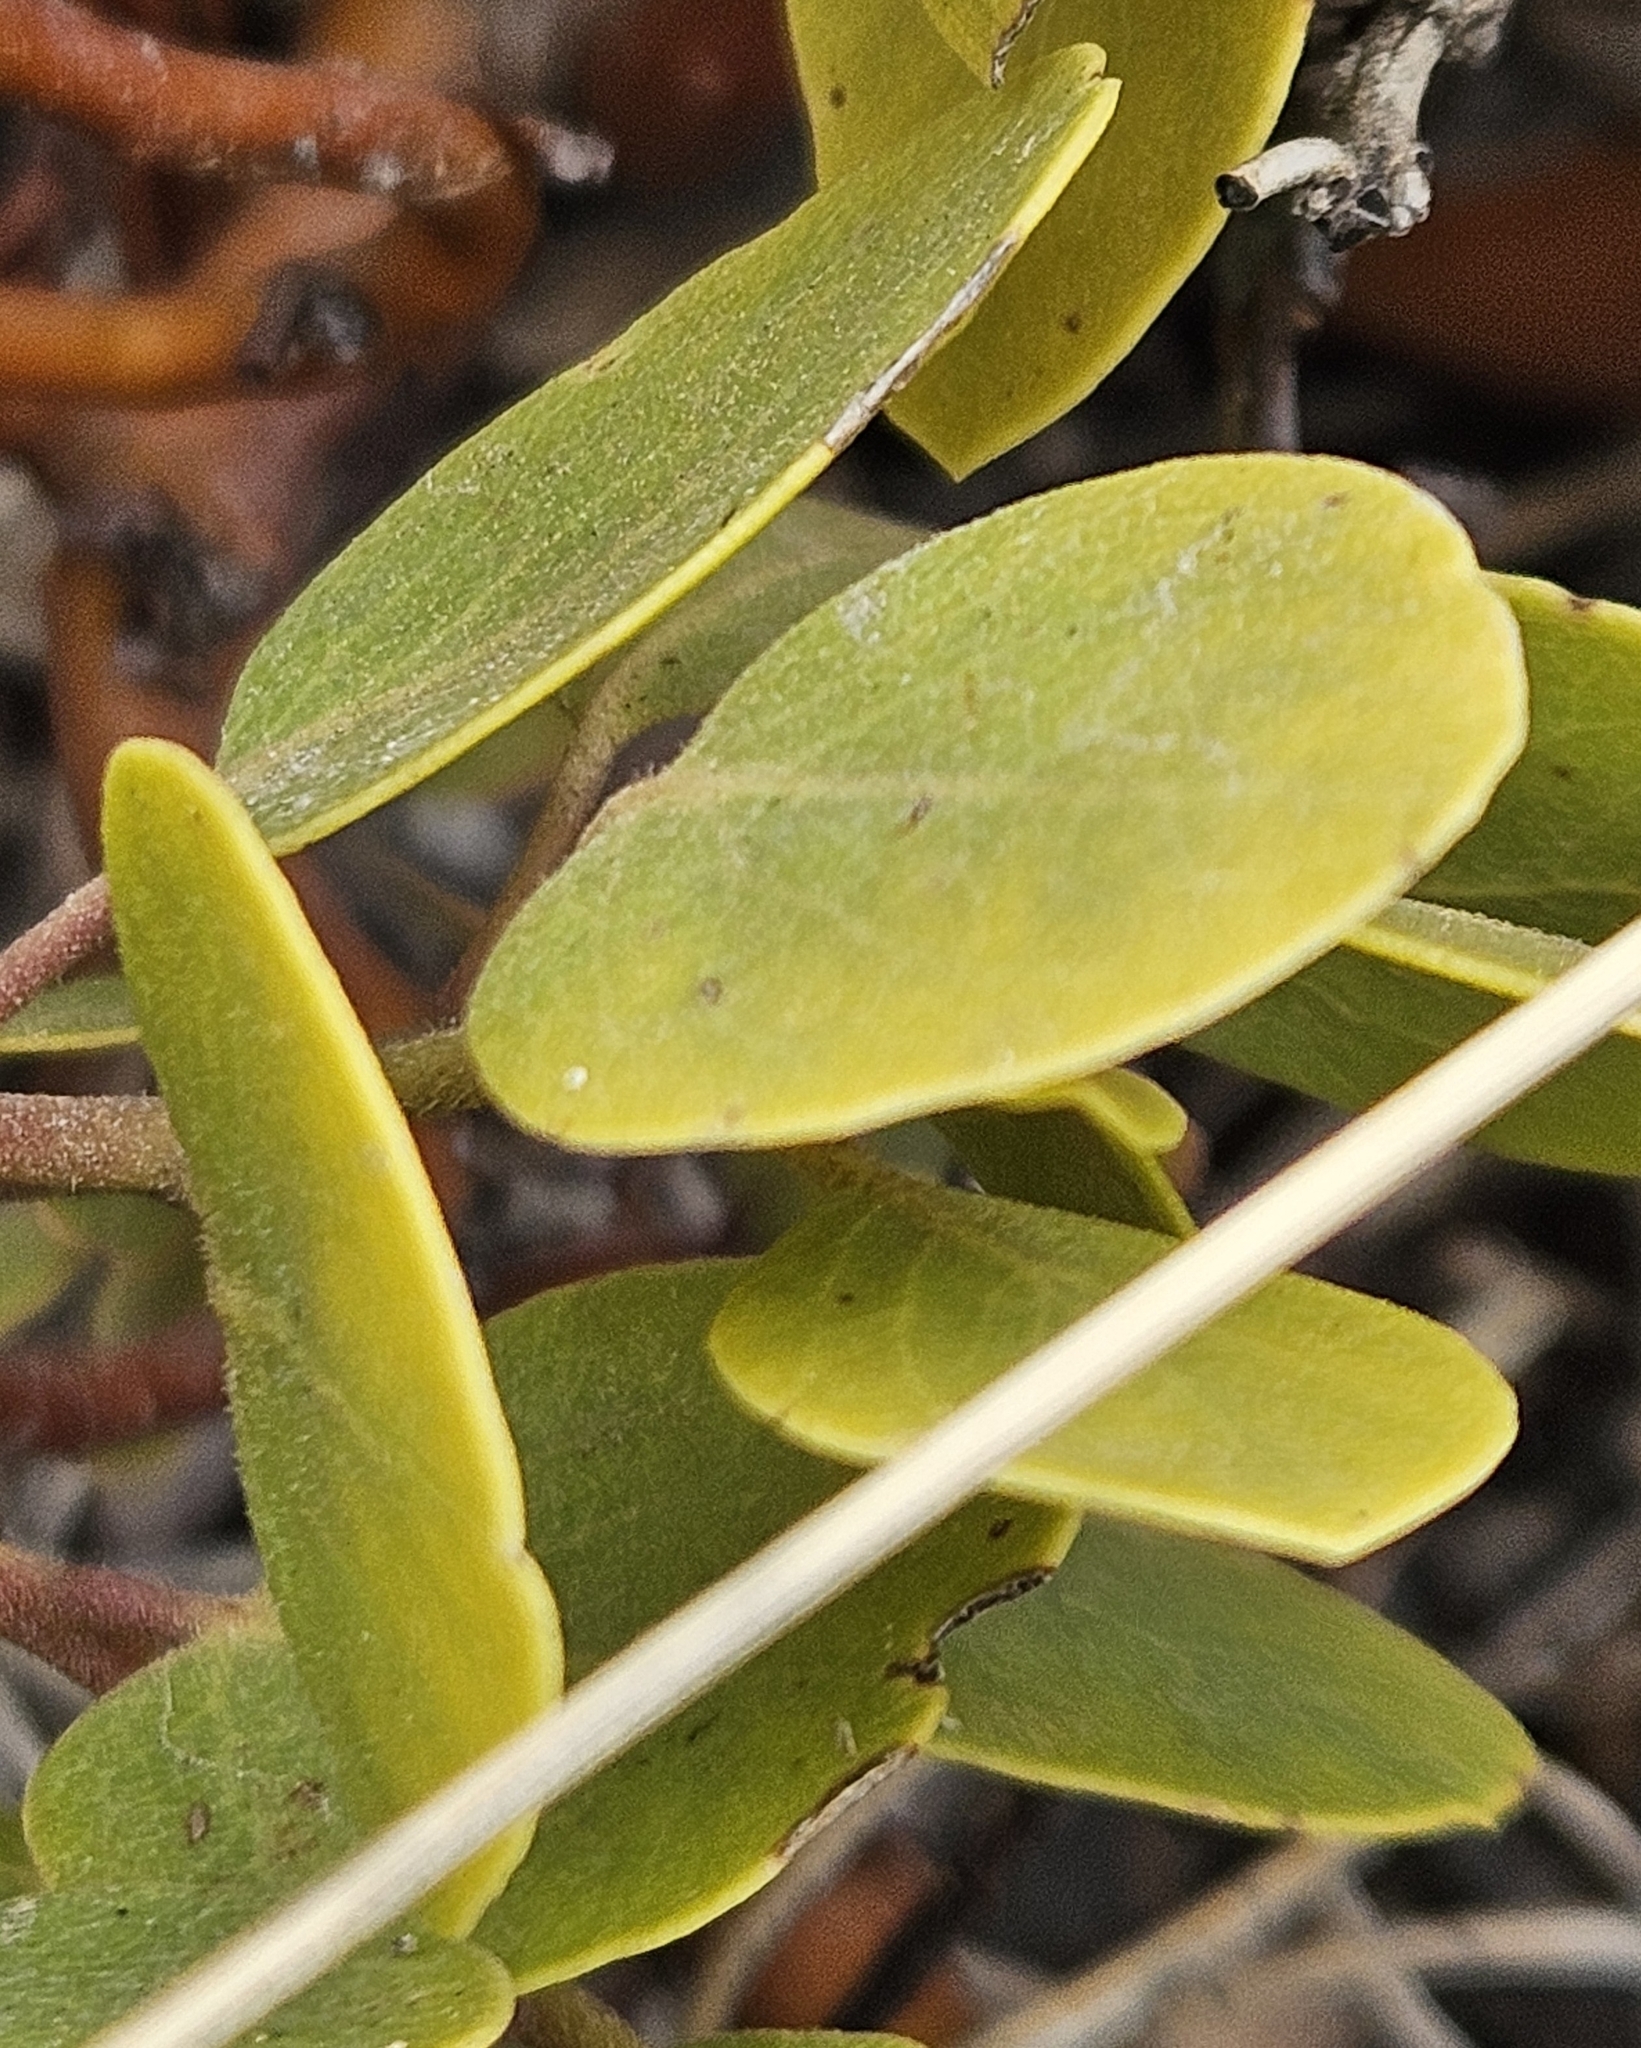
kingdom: Plantae
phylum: Tracheophyta
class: Magnoliopsida
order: Ericales
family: Ericaceae
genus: Arctostaphylos
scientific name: Arctostaphylos patula
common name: Green-leaf manzanita
